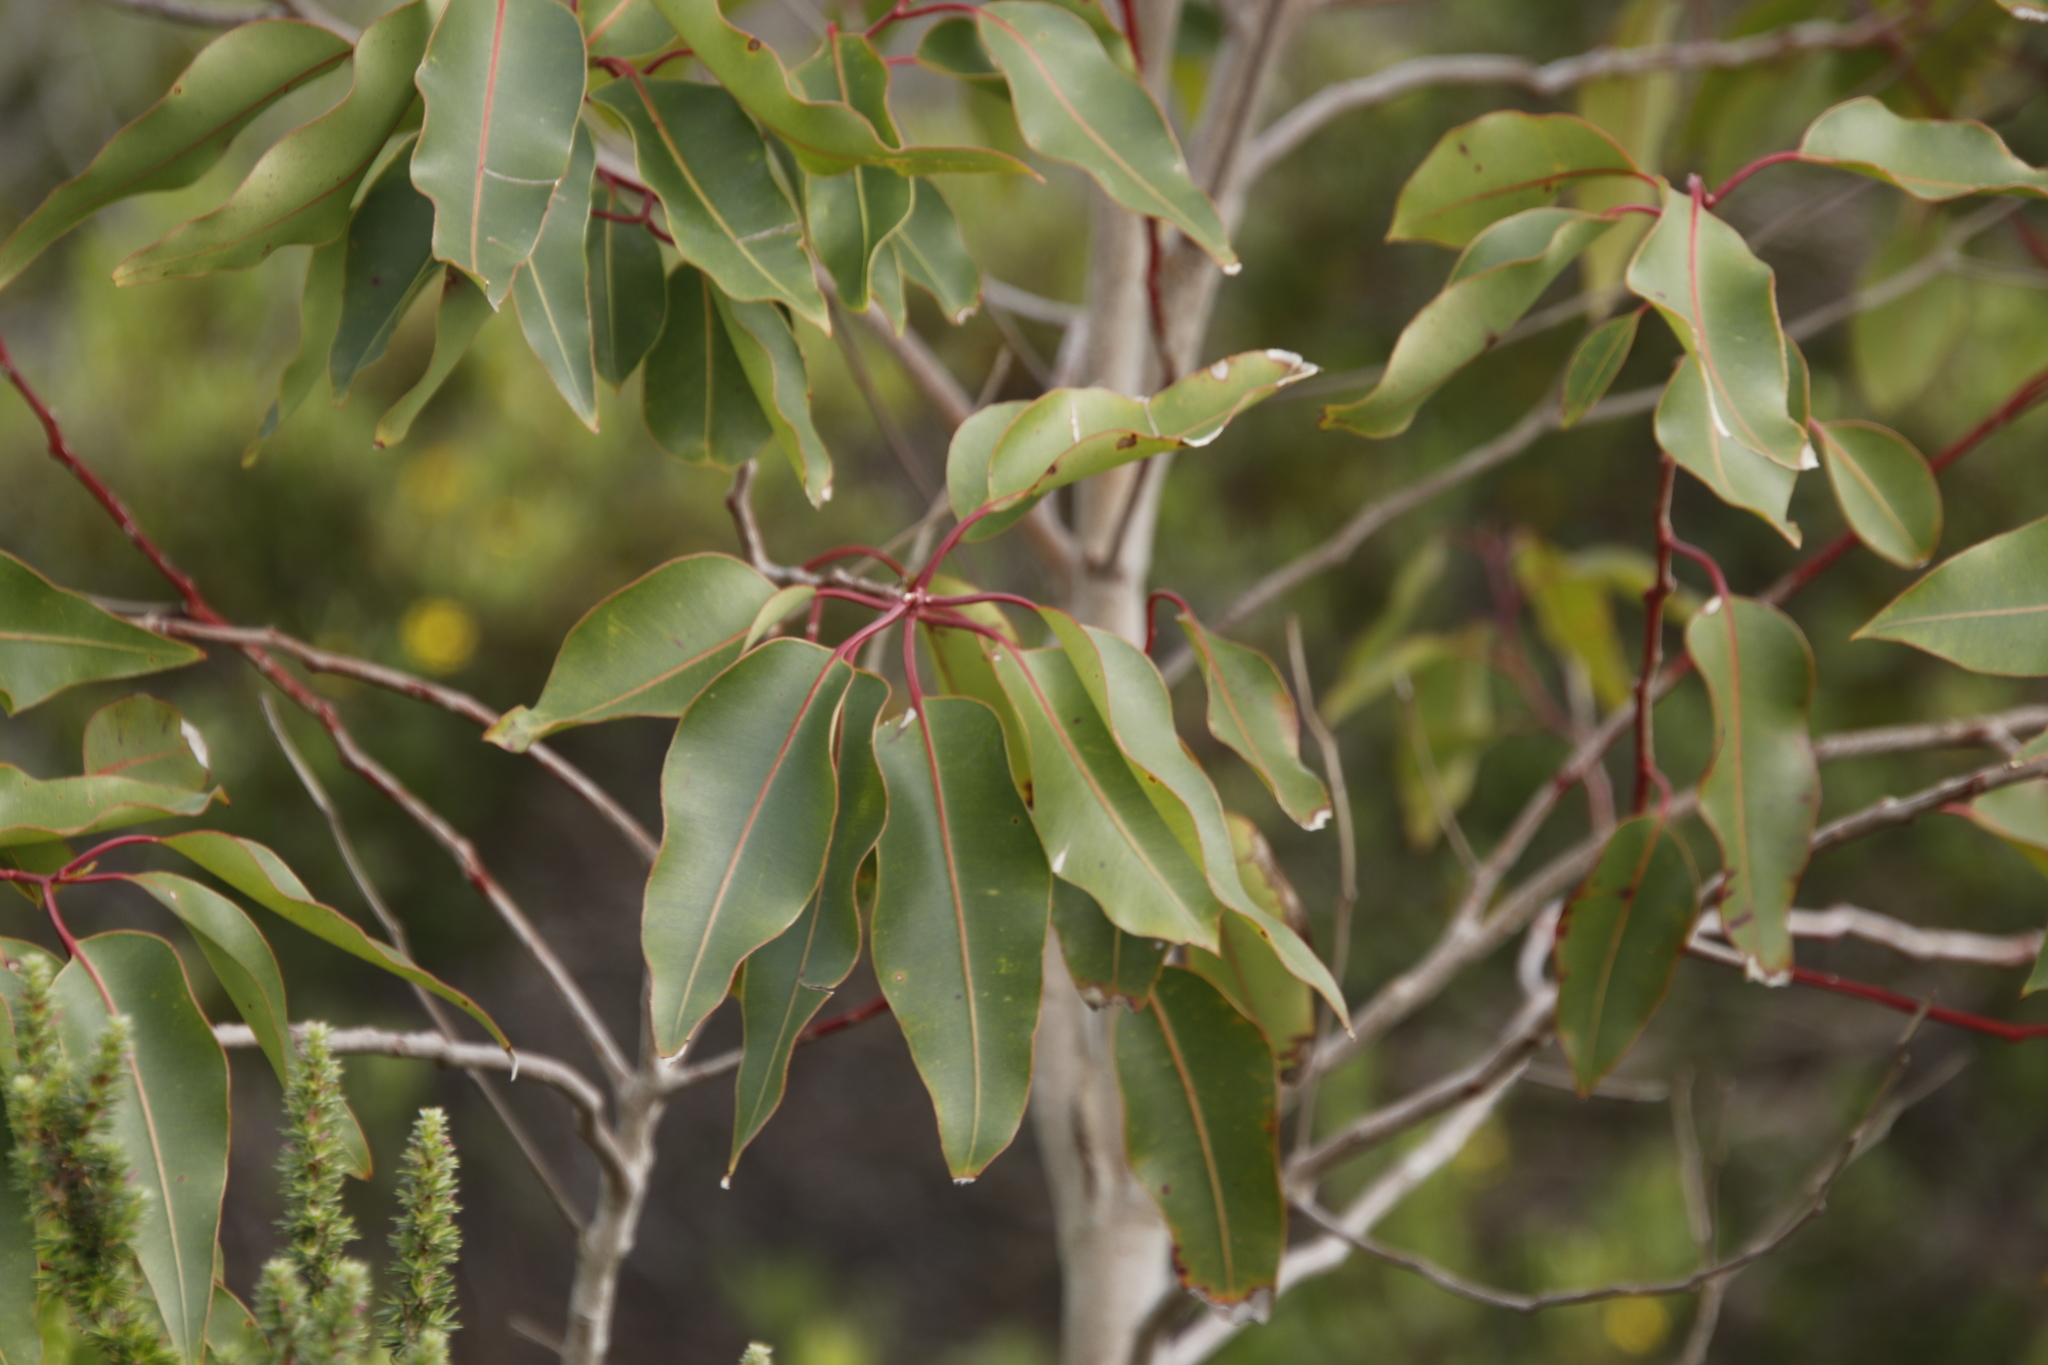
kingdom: Plantae
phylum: Tracheophyta
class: Magnoliopsida
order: Myrtales
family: Myrtaceae
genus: Corymbia
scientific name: Corymbia ficifolia
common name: Redflower gum
